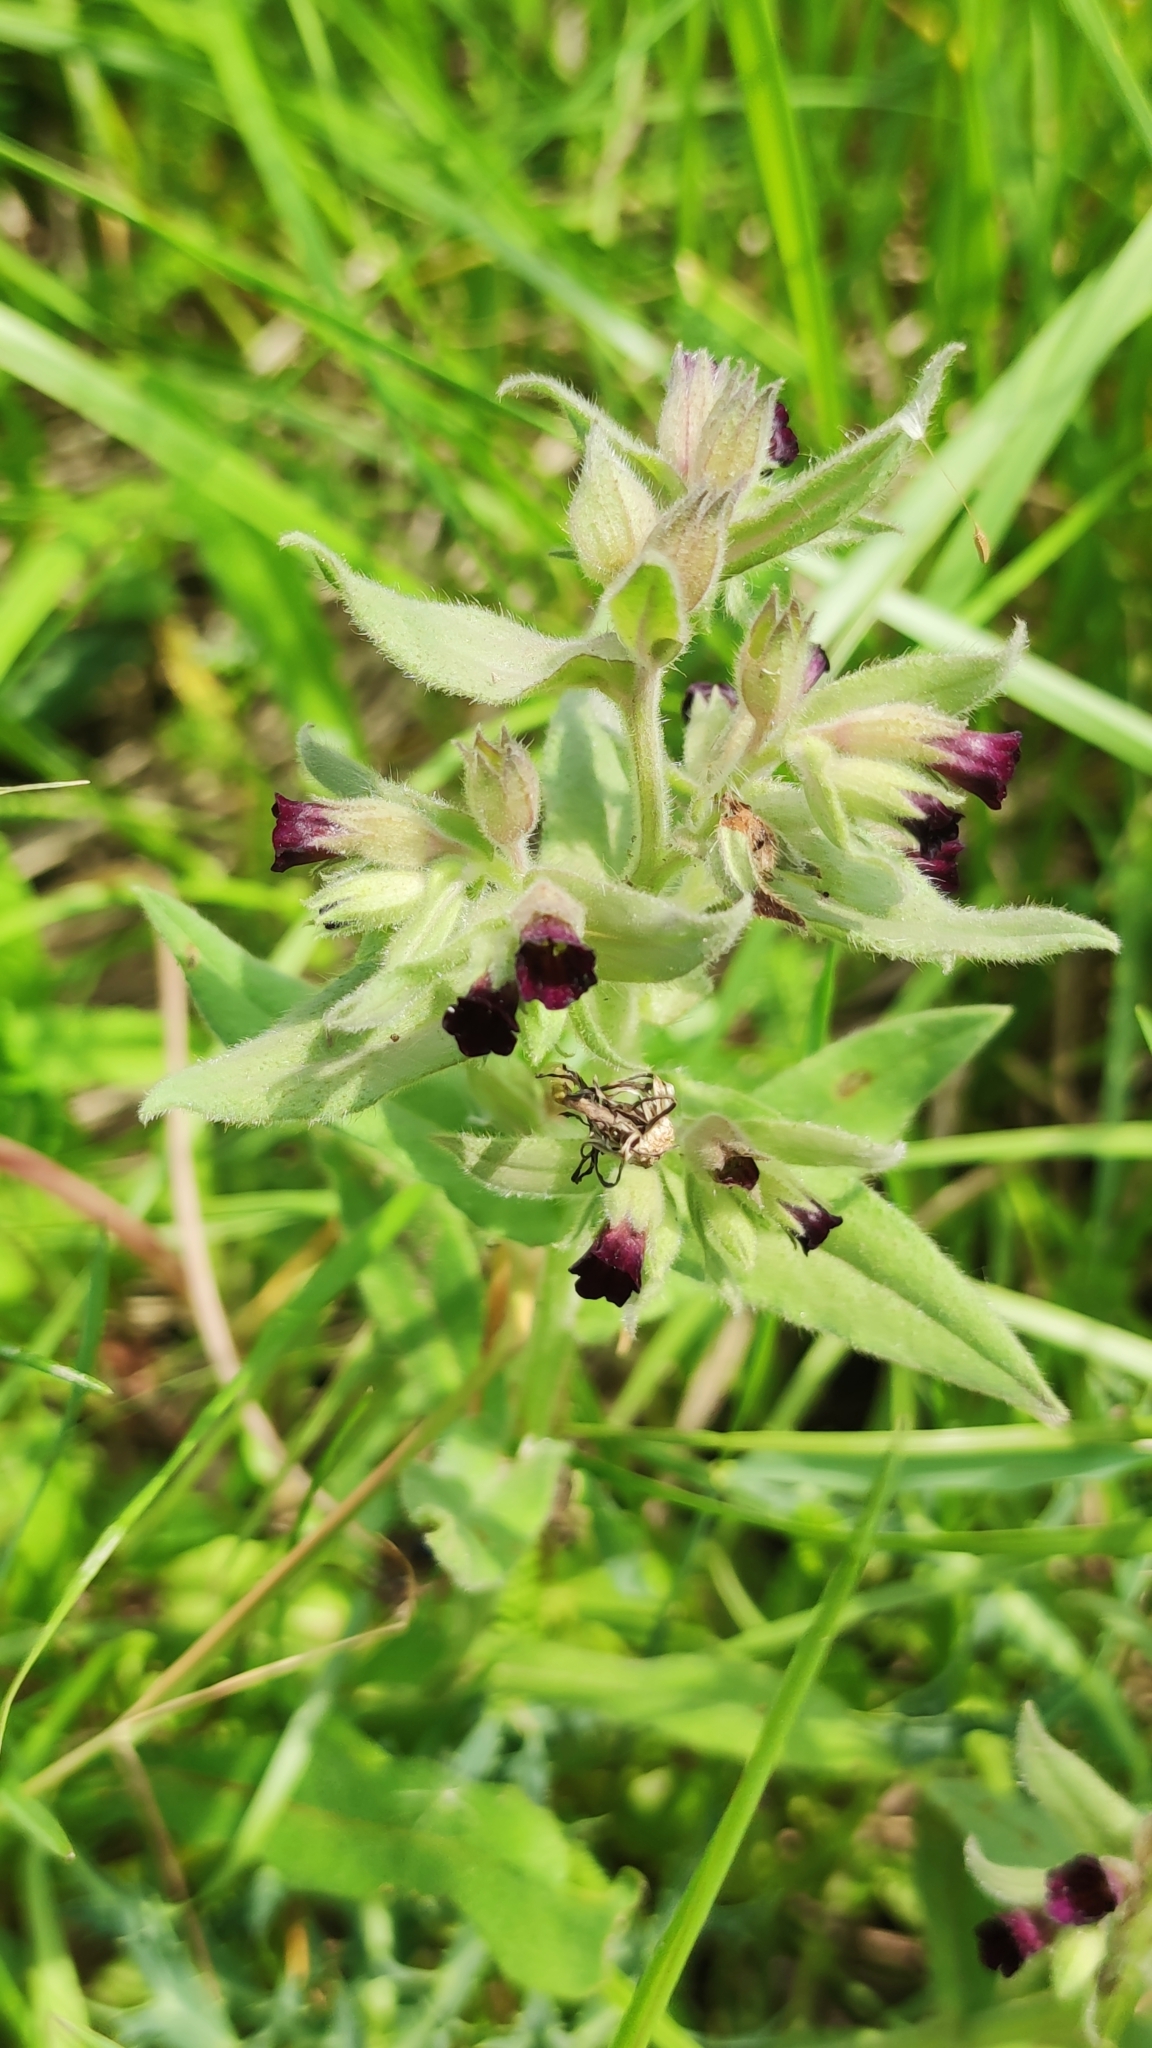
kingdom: Plantae
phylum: Tracheophyta
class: Magnoliopsida
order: Boraginales
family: Boraginaceae
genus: Nonea
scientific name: Nonea pulla
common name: Brown nonea
